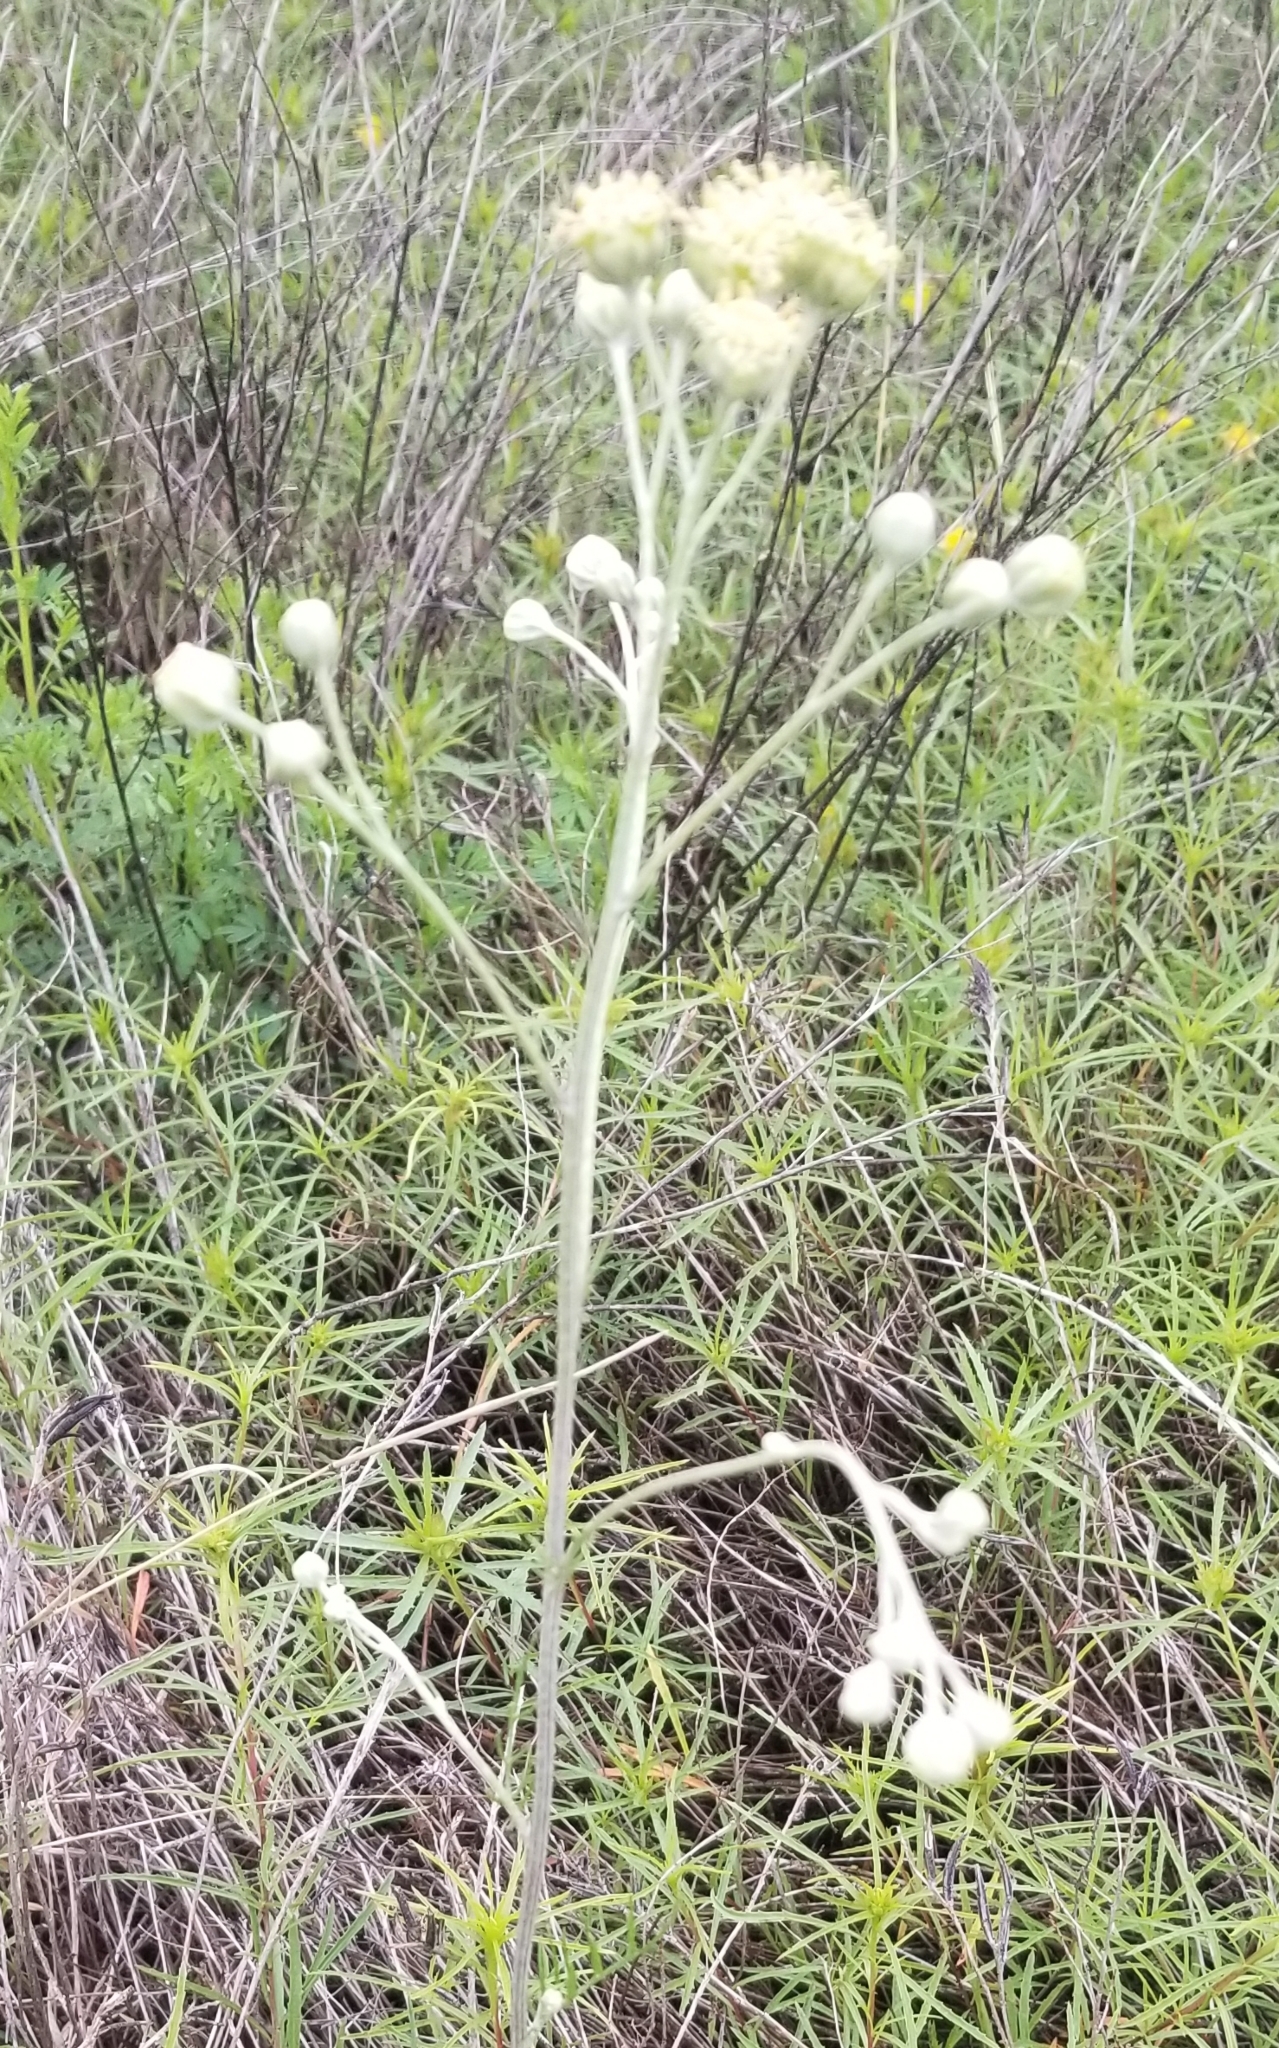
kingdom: Plantae
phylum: Tracheophyta
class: Magnoliopsida
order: Asterales
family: Asteraceae
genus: Hymenopappus
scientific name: Hymenopappus scabiosaeus
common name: Carolina woollywhite
